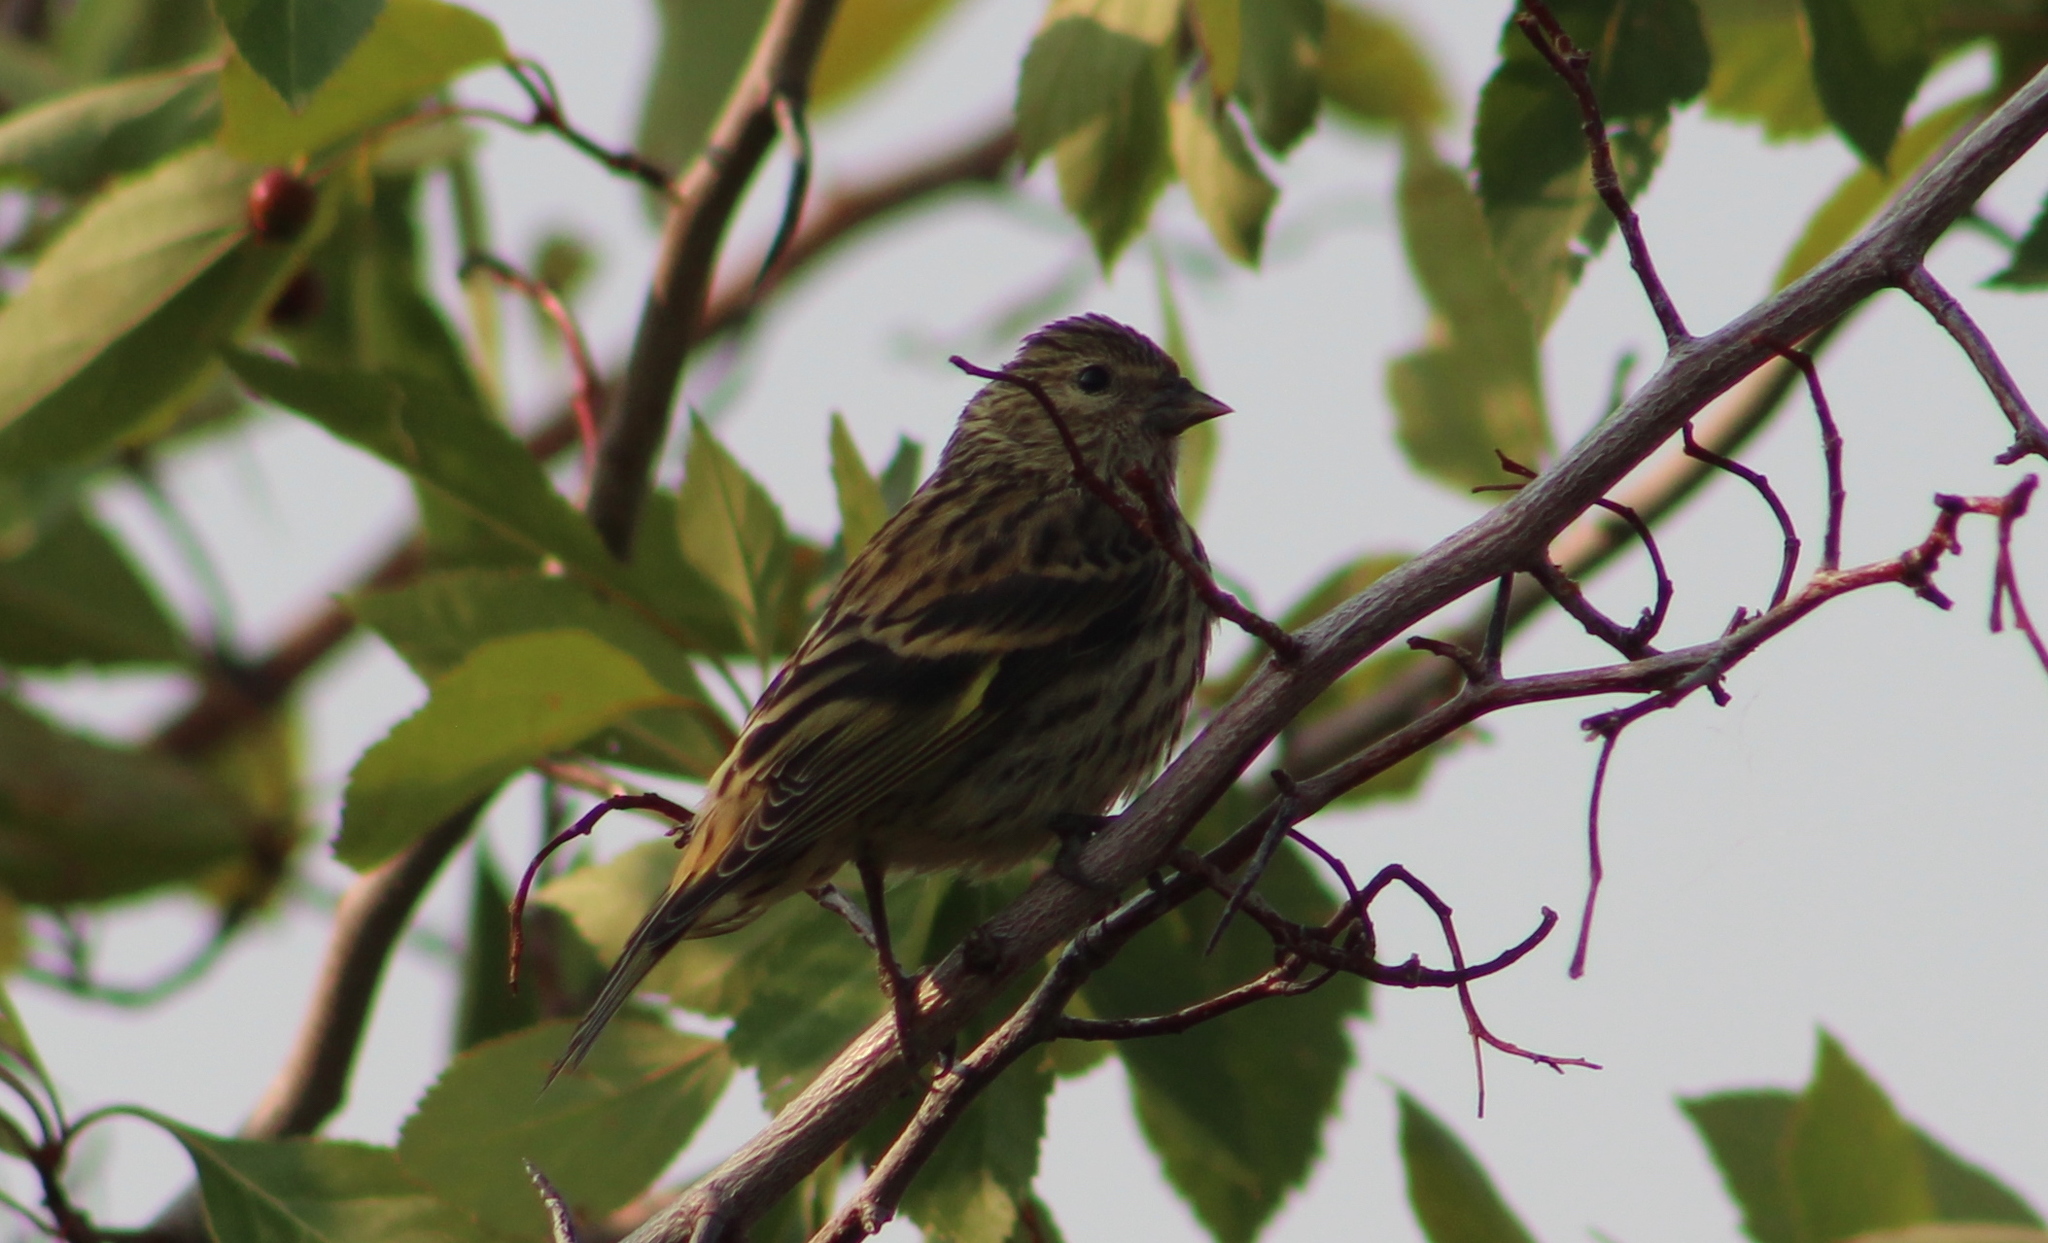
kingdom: Animalia
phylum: Chordata
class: Aves
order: Passeriformes
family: Fringillidae
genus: Spinus
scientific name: Spinus pinus
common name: Pine siskin
